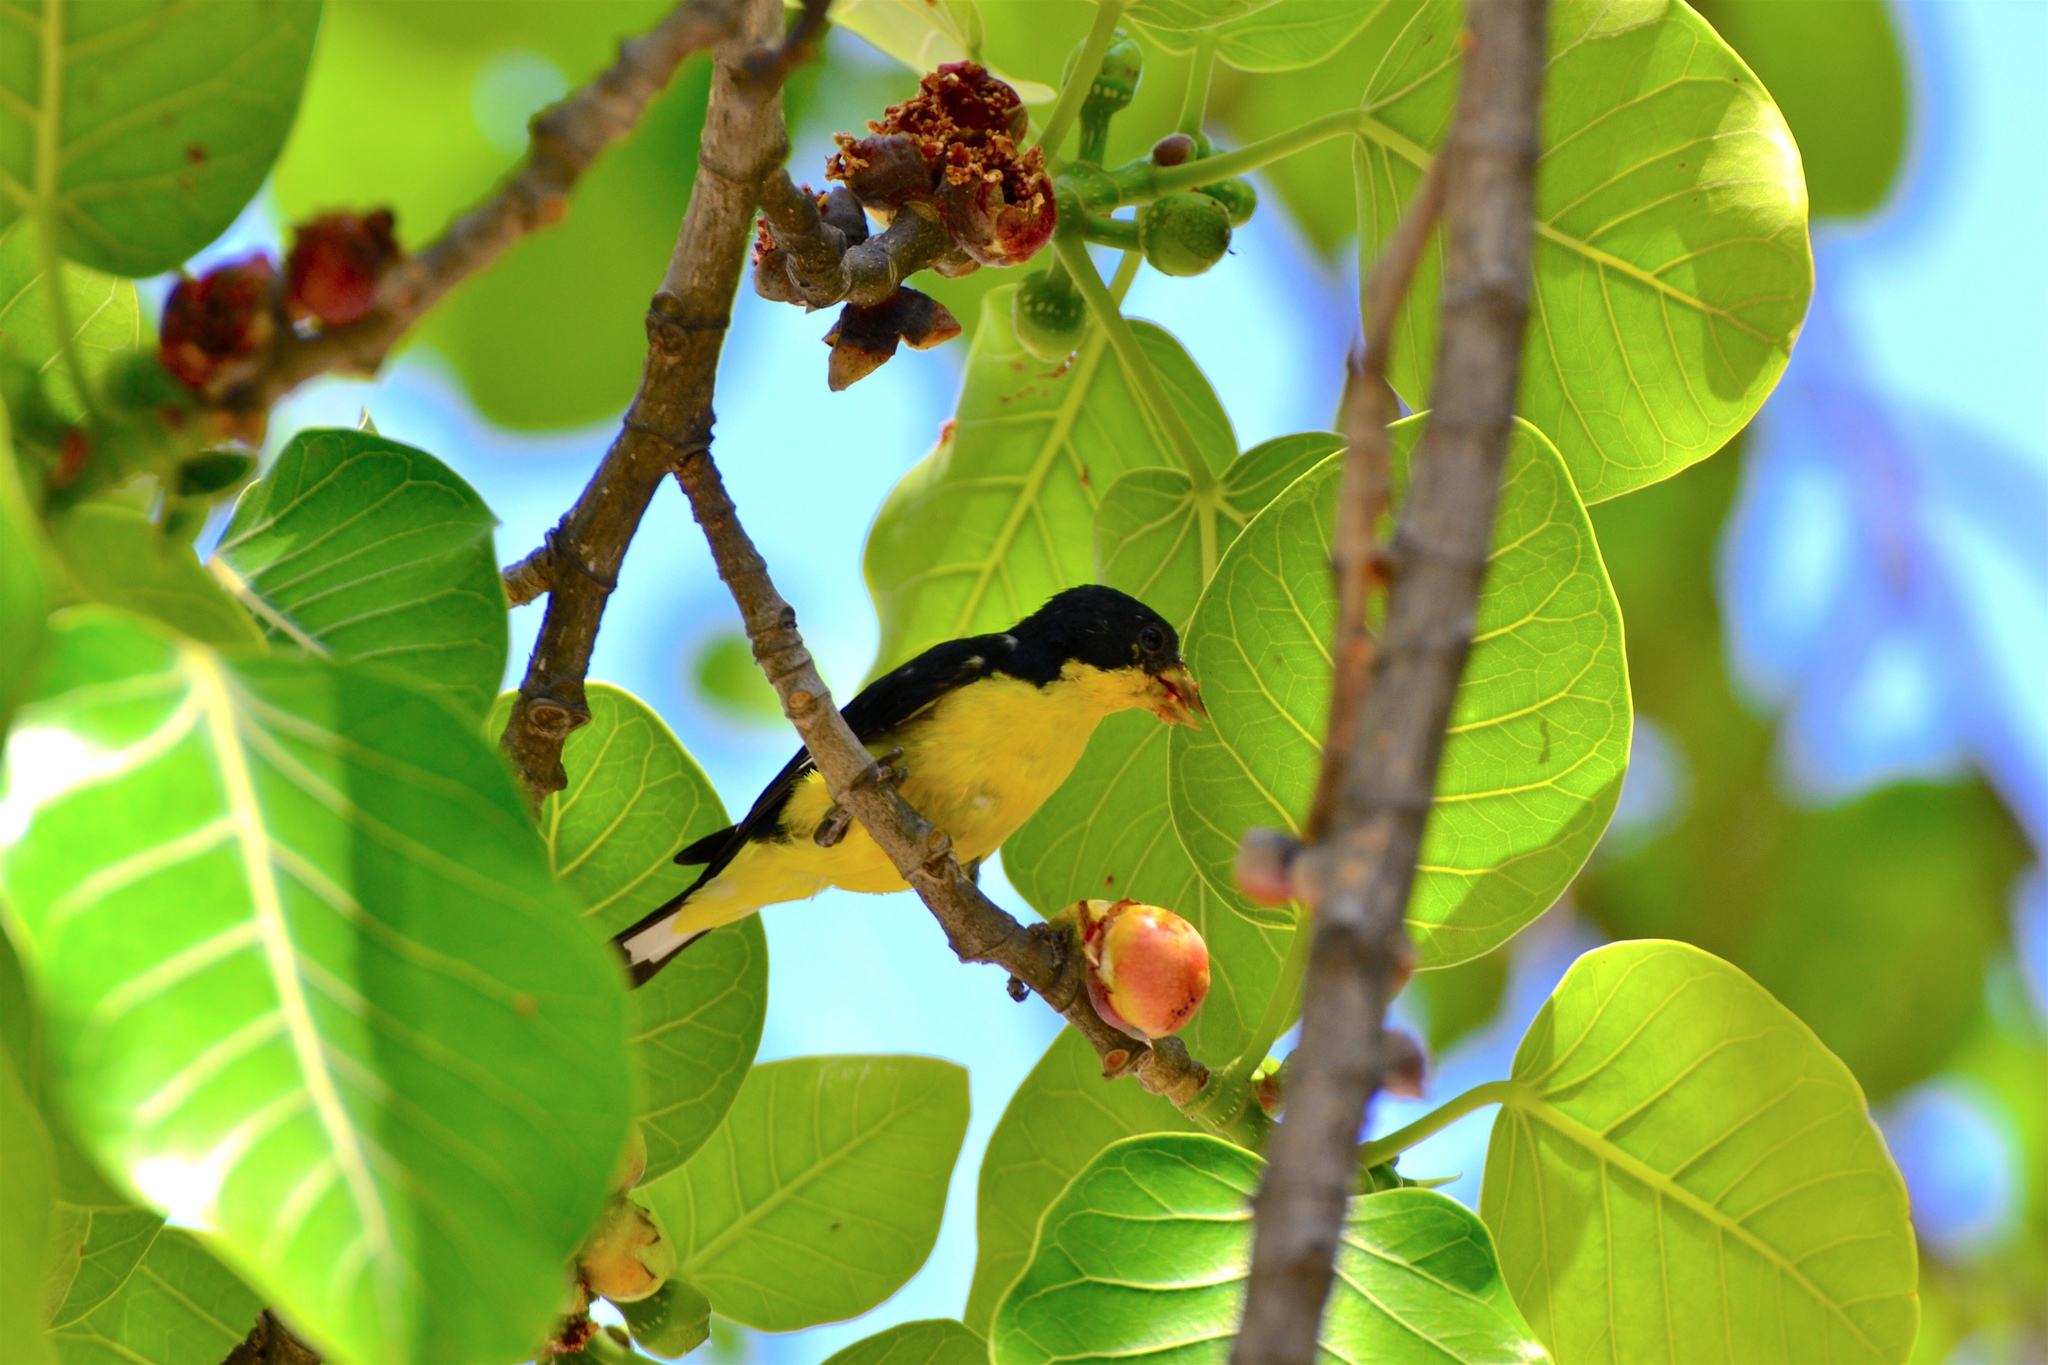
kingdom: Animalia
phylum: Chordata
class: Aves
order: Passeriformes
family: Fringillidae
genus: Spinus
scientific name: Spinus psaltria
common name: Lesser goldfinch
